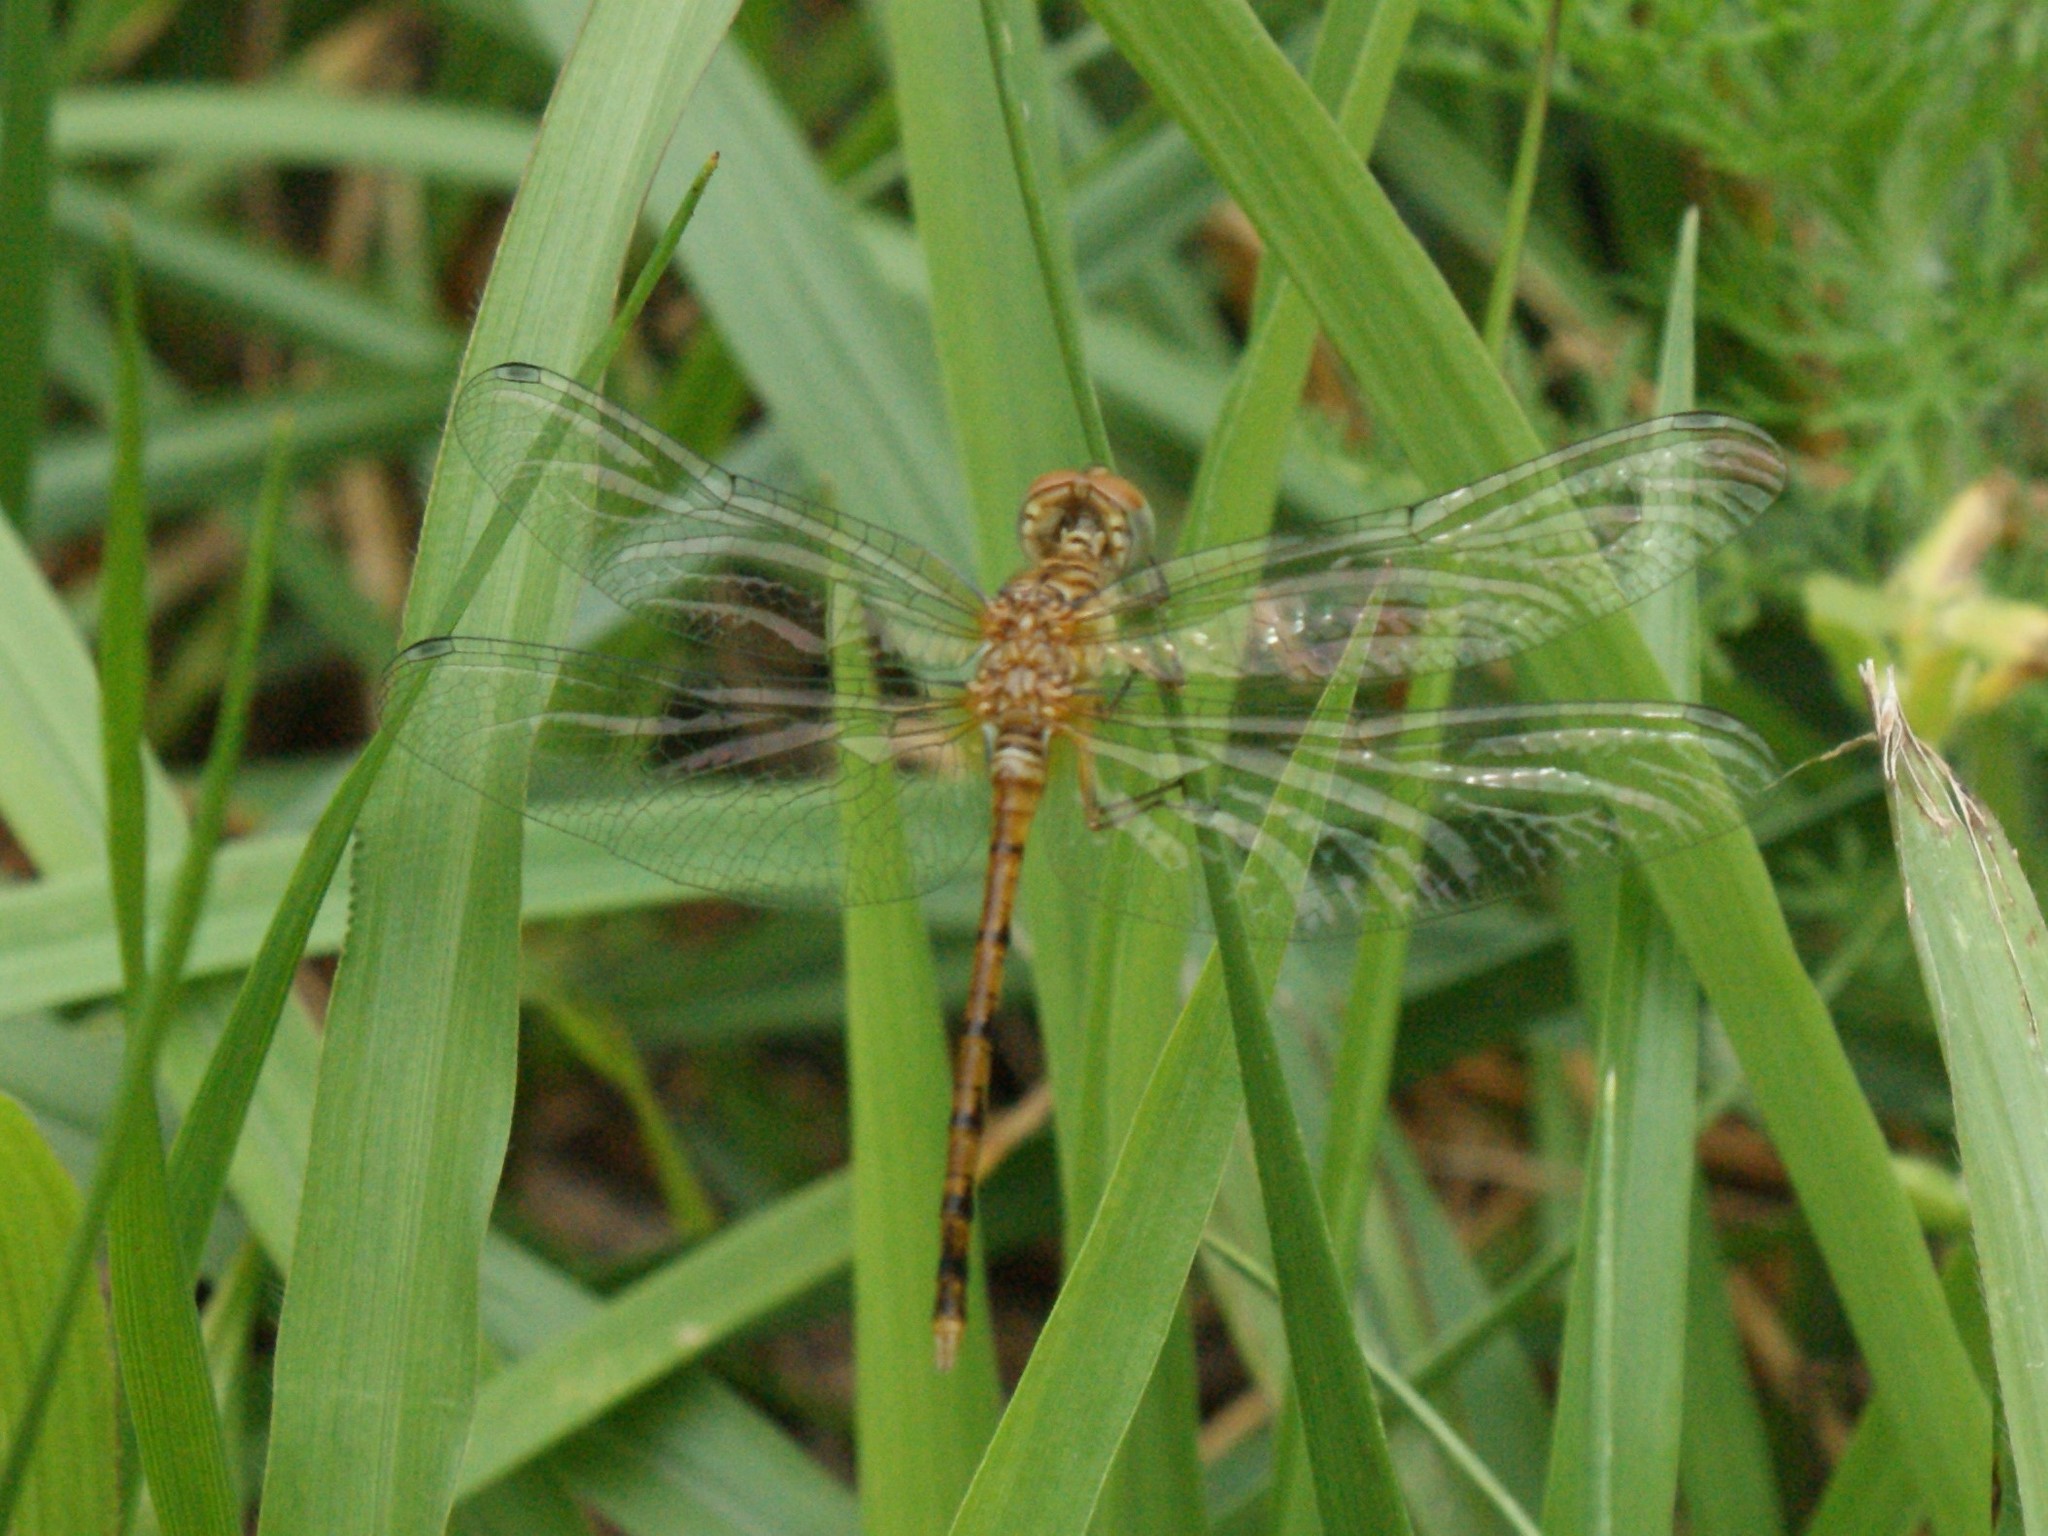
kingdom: Animalia
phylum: Arthropoda
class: Insecta
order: Odonata
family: Libellulidae
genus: Sympetrum
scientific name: Sympetrum ambiguum
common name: Blue-faced meadowhawk
